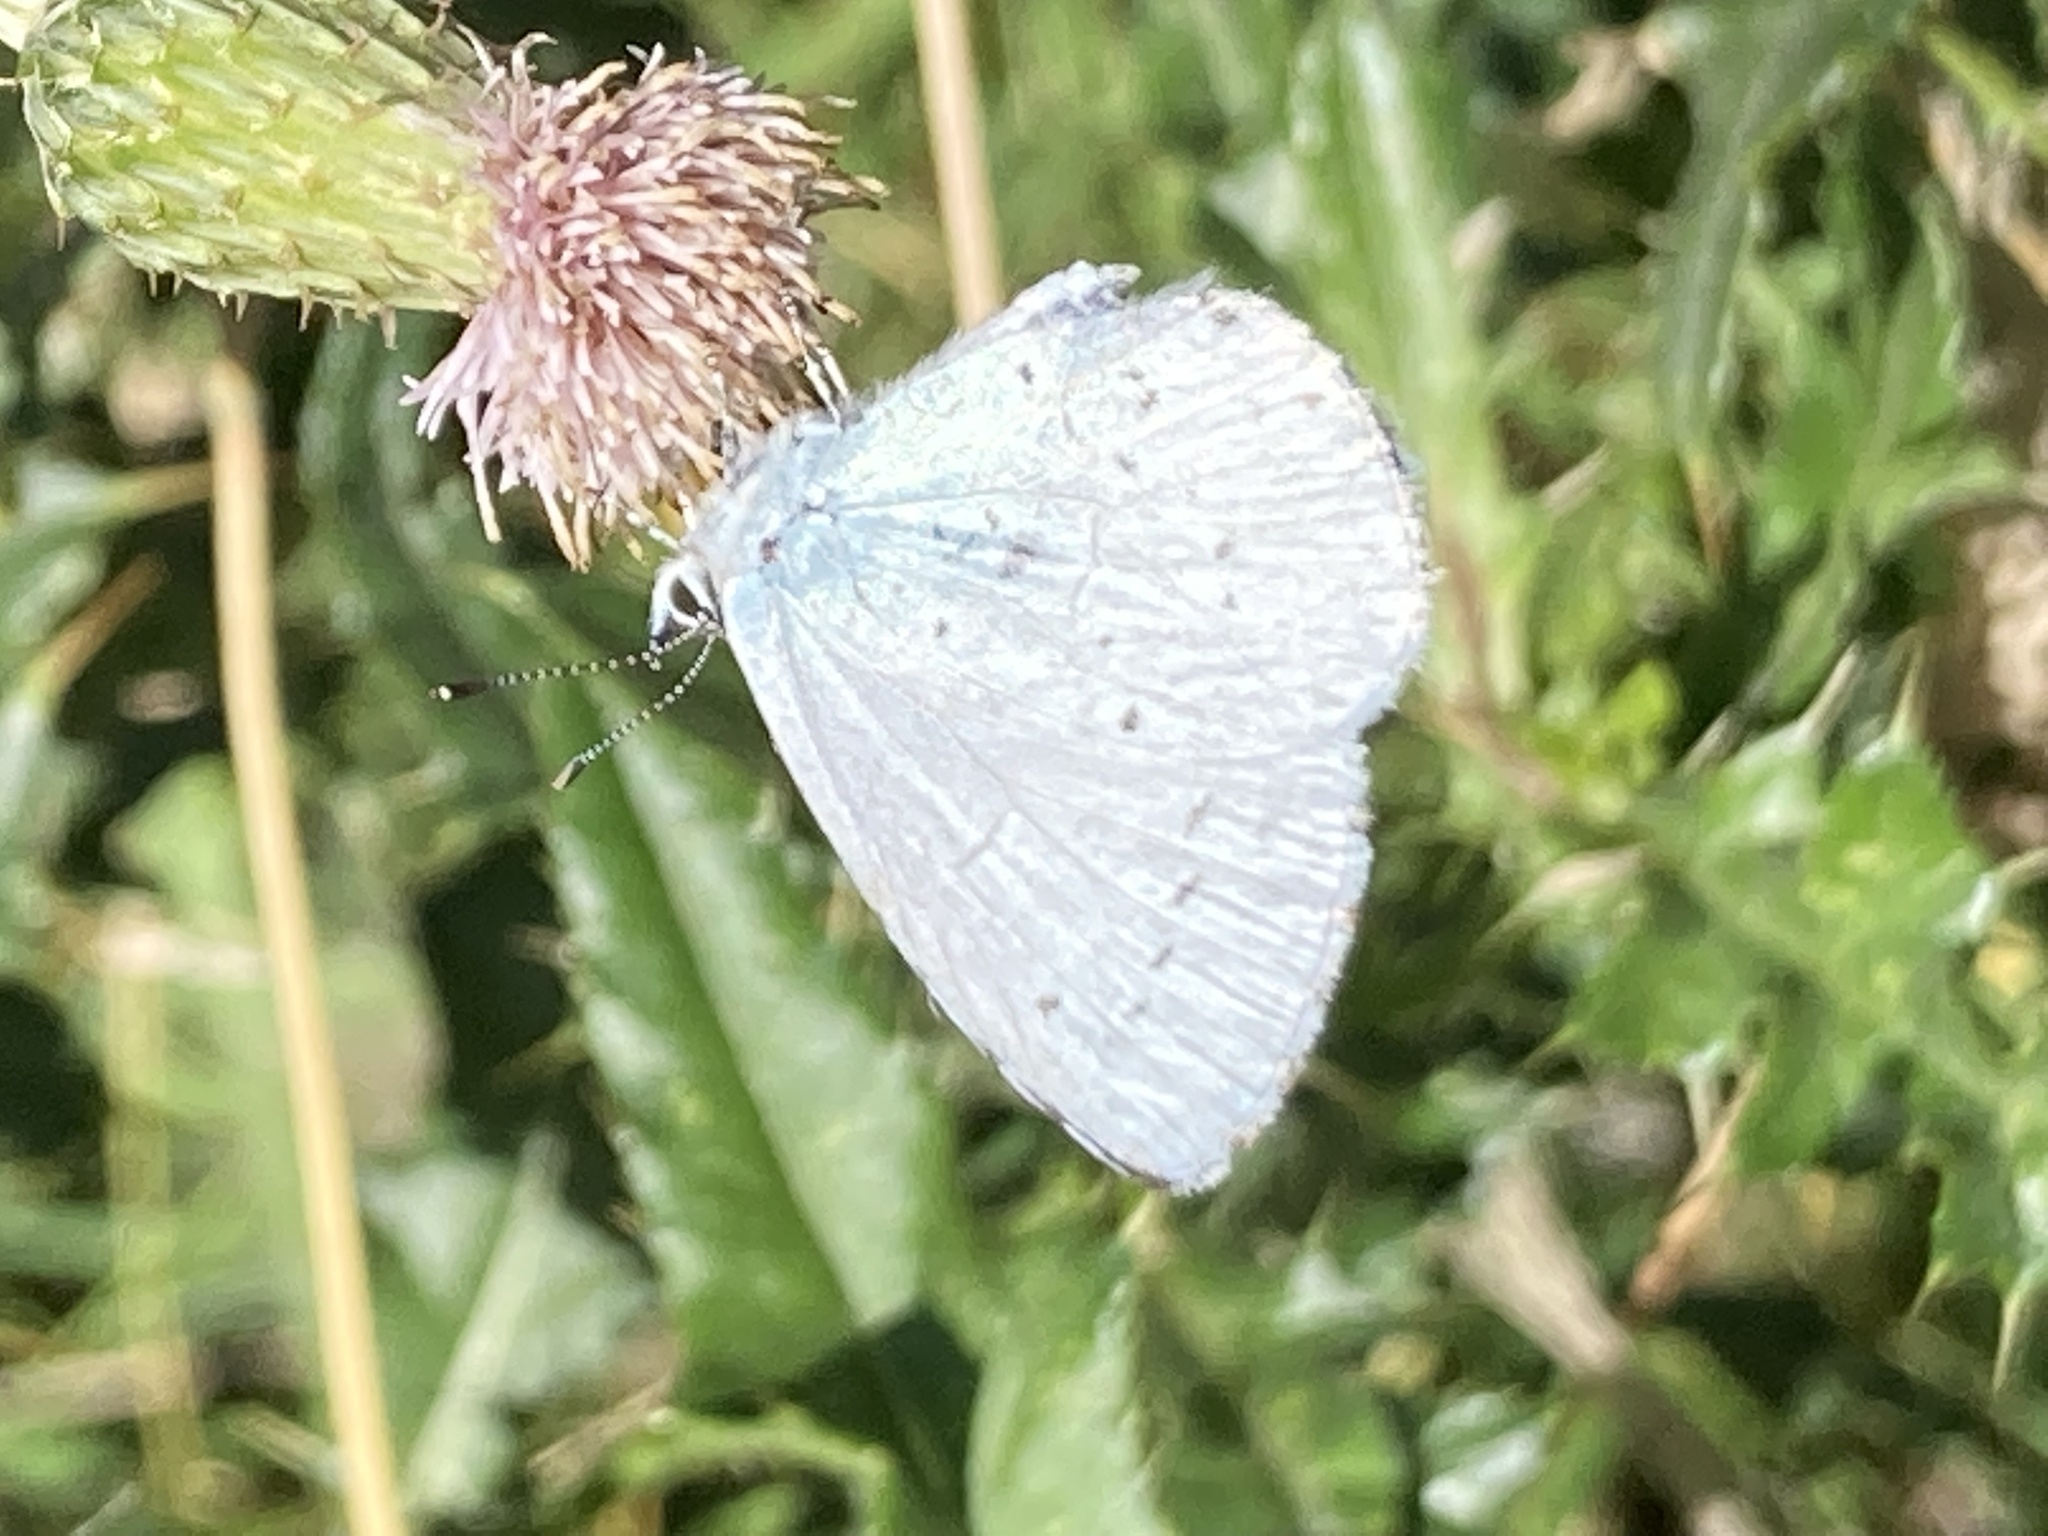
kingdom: Animalia
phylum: Arthropoda
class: Insecta
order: Lepidoptera
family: Lycaenidae
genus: Celastrina
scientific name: Celastrina argiolus
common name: Holly blue
